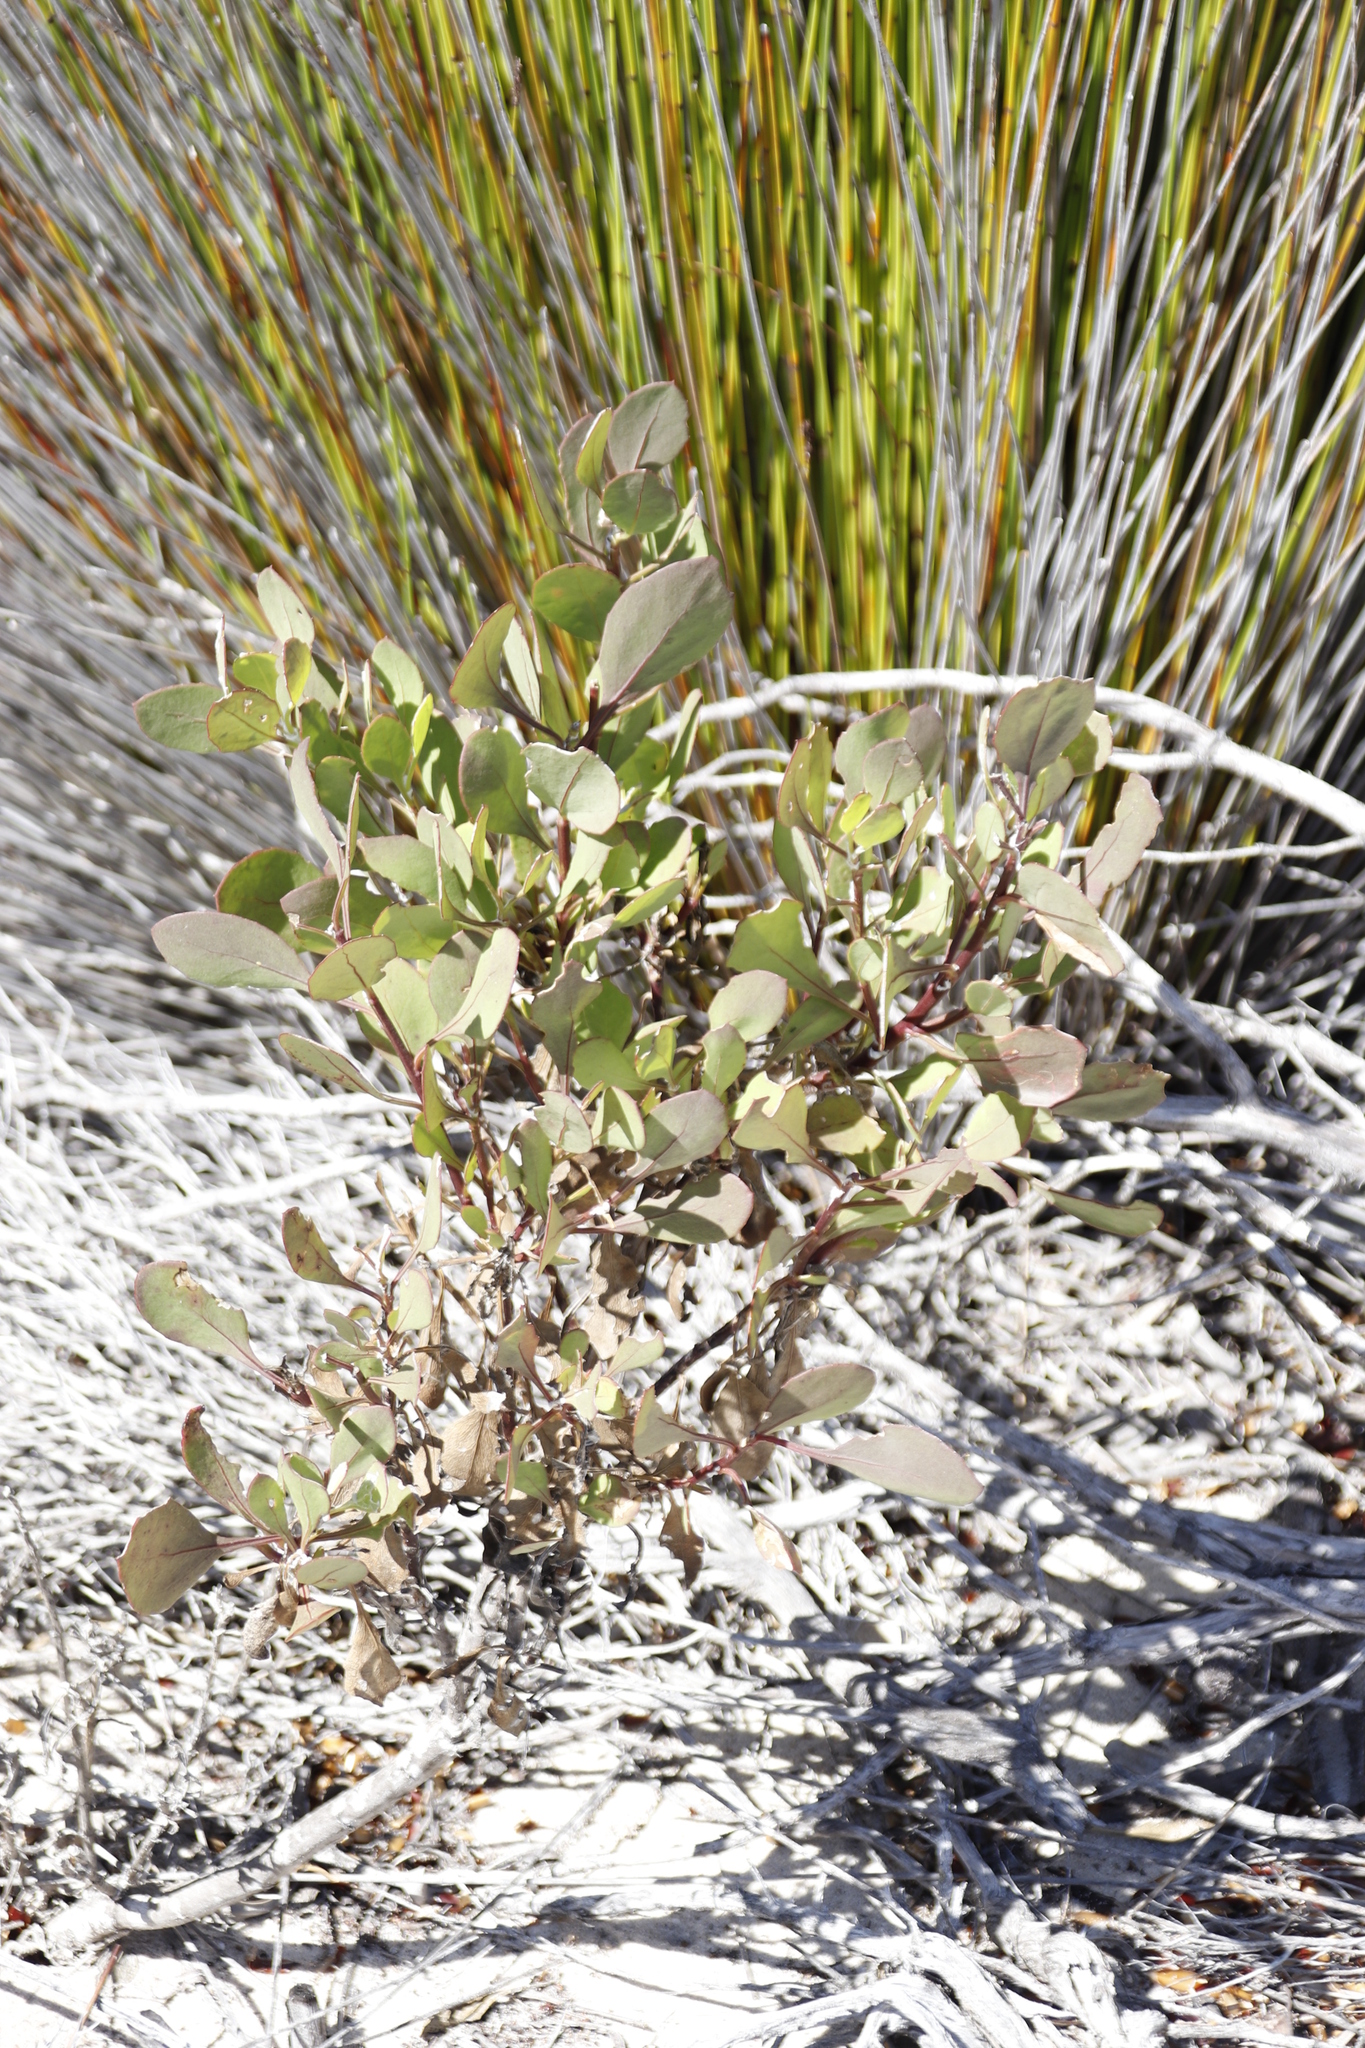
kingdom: Plantae
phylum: Tracheophyta
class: Magnoliopsida
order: Asterales
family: Asteraceae
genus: Osteospermum
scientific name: Osteospermum moniliferum
